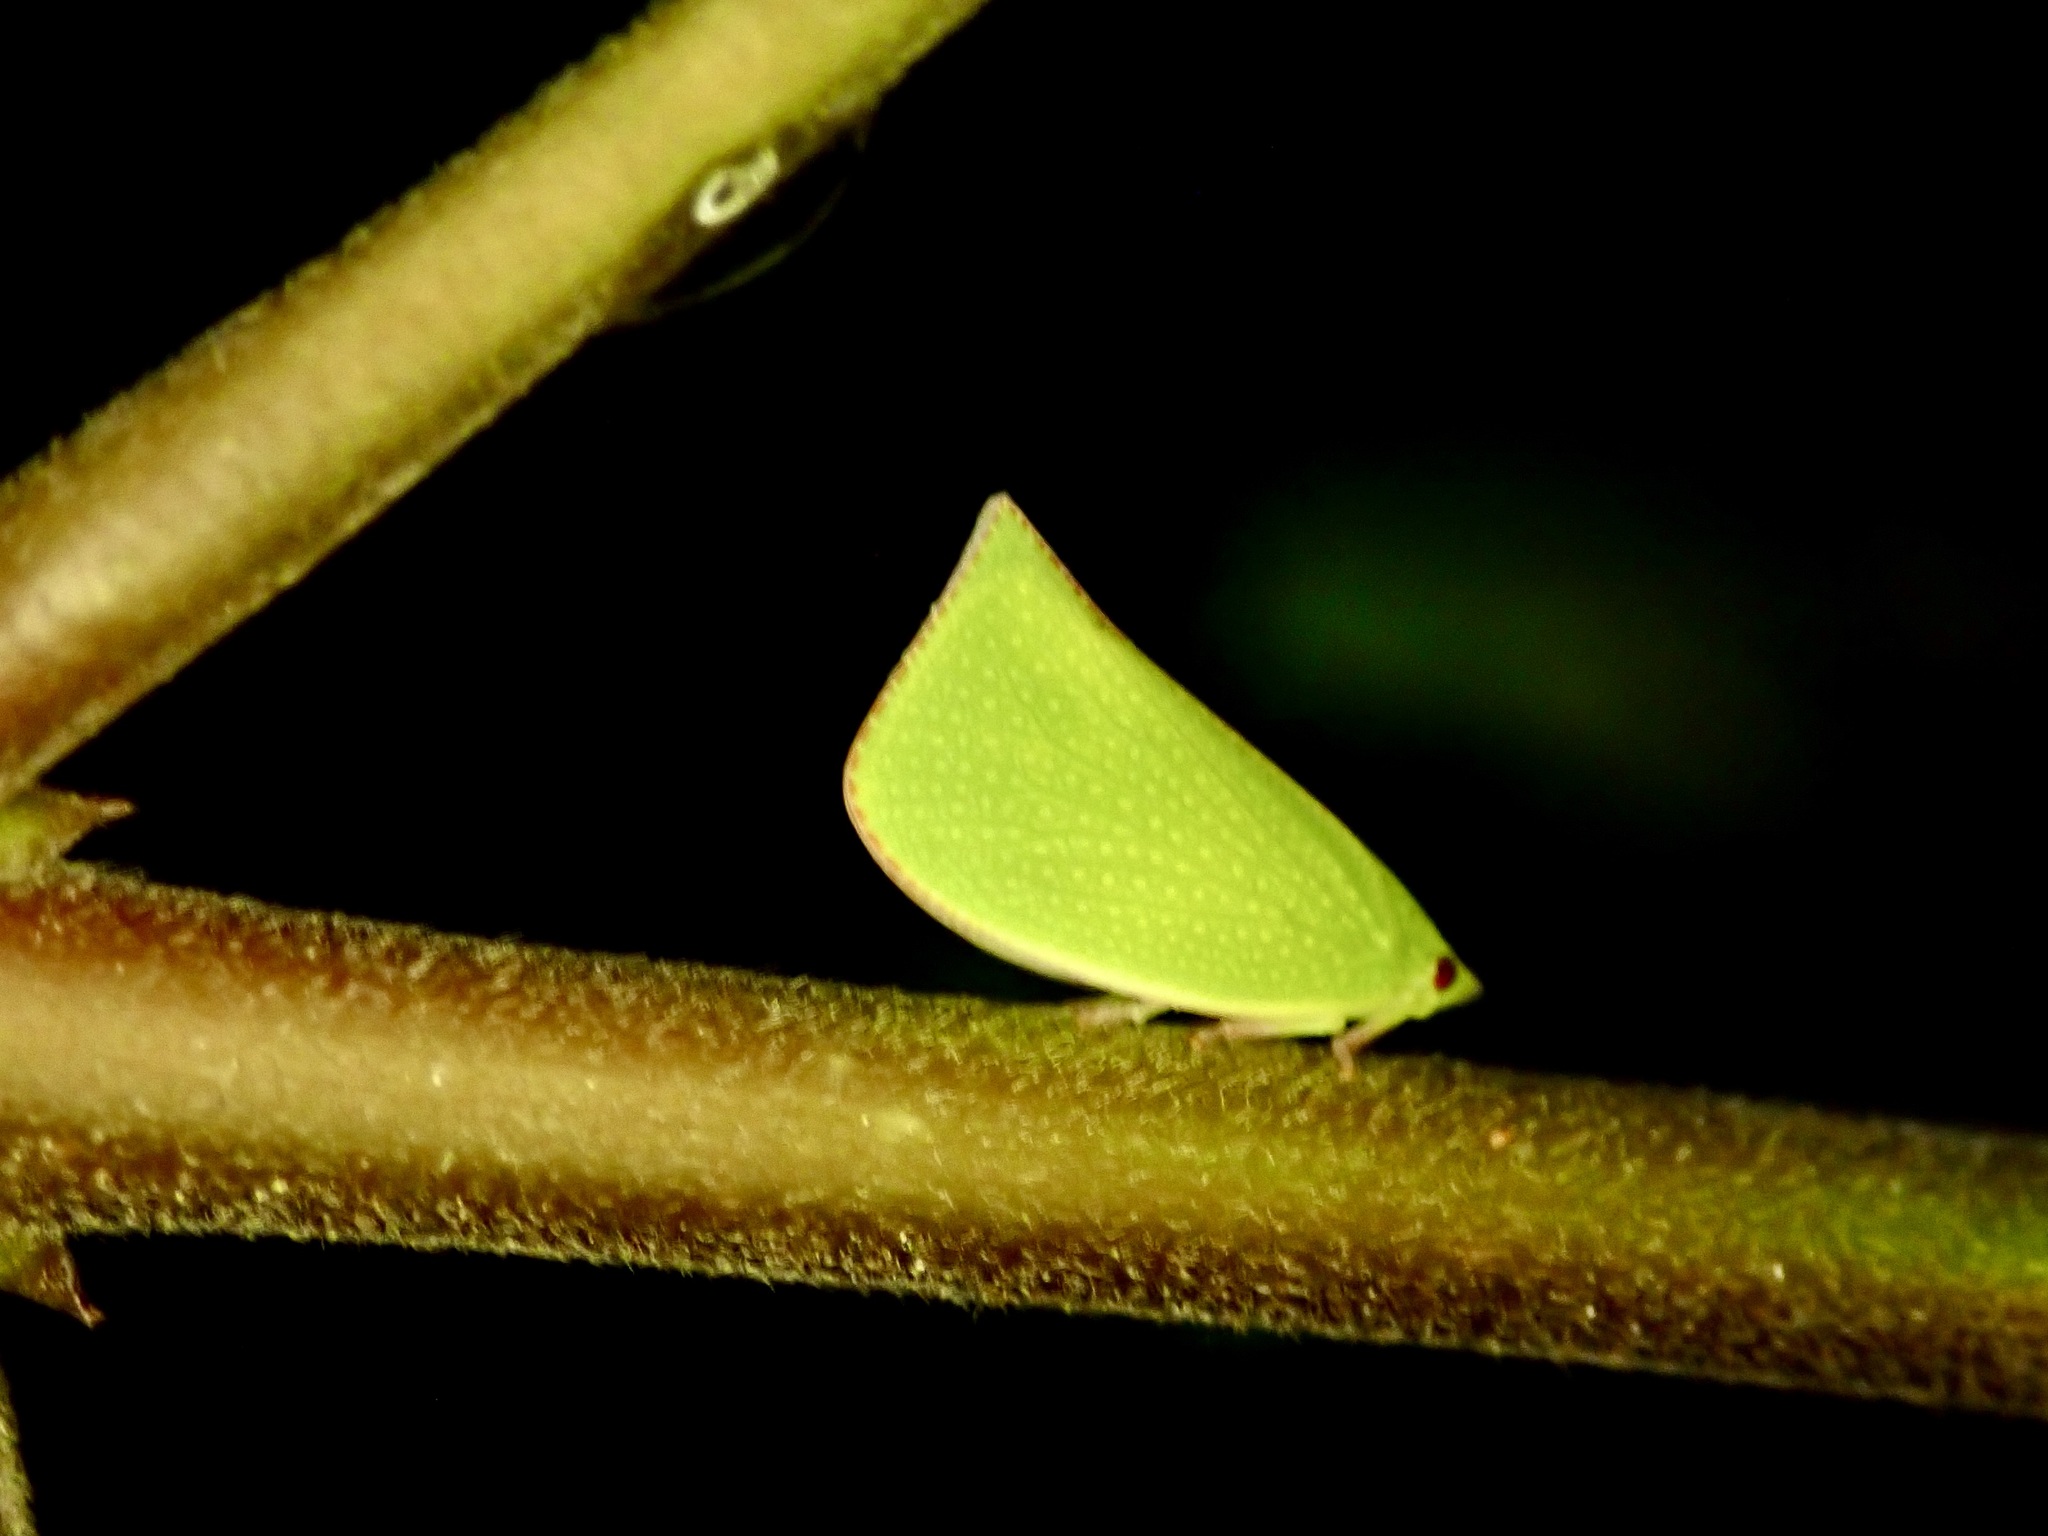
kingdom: Animalia
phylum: Arthropoda
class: Insecta
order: Hemiptera
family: Flatidae
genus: Siphanta
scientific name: Siphanta acuta
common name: Torpedo bug
